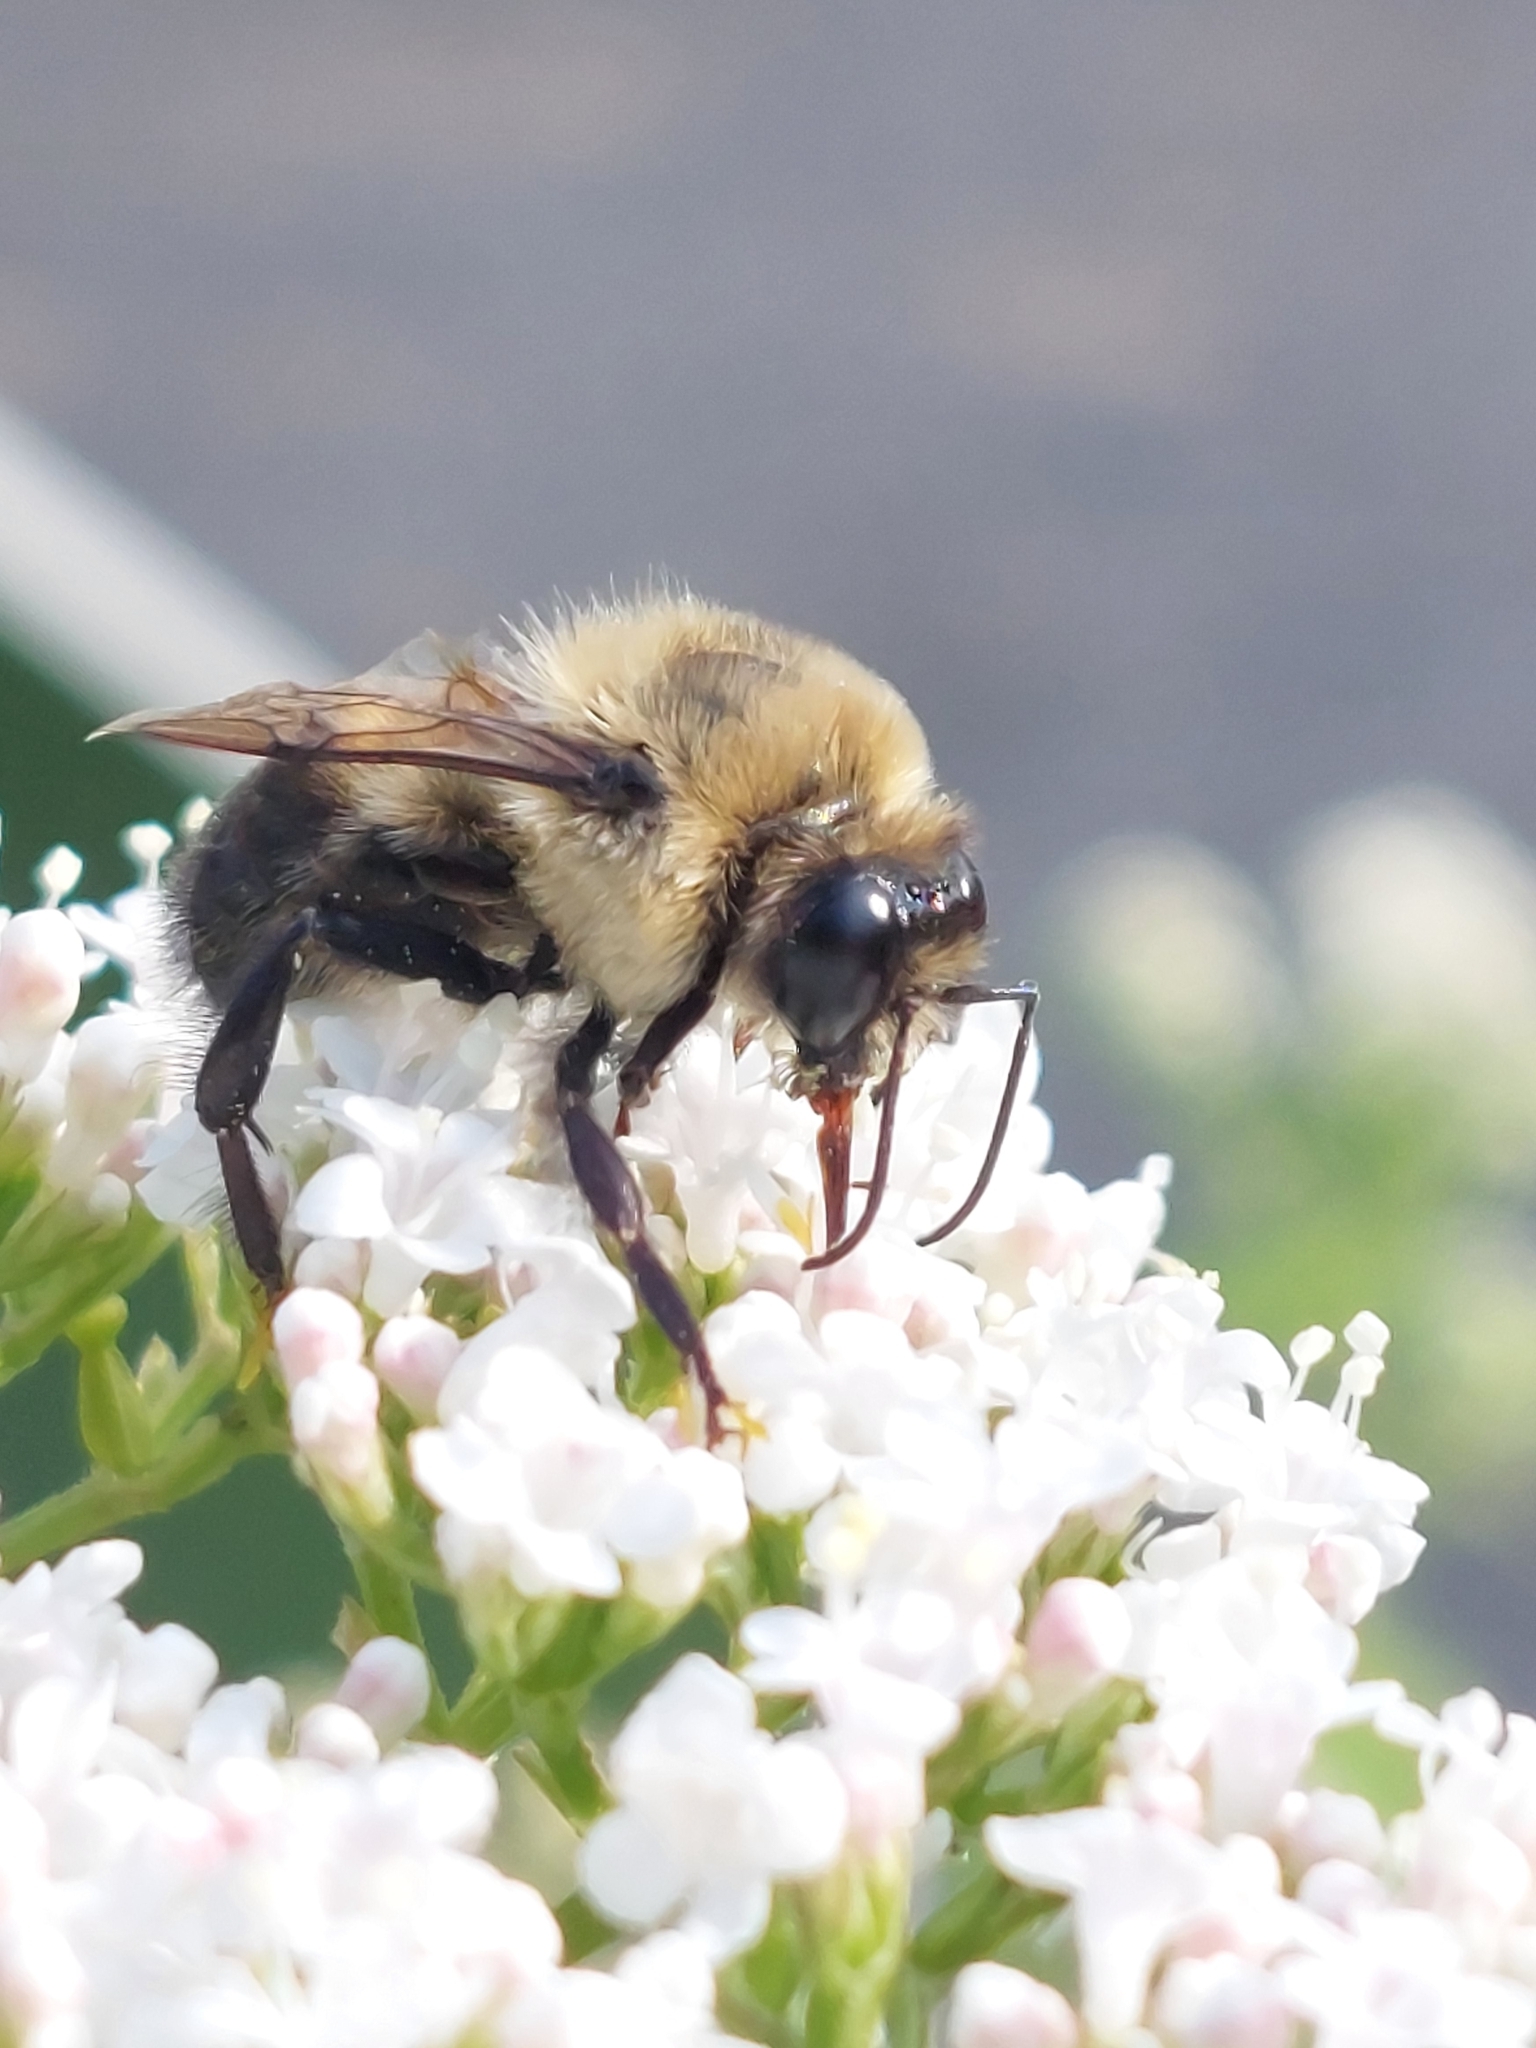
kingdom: Animalia
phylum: Arthropoda
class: Insecta
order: Hymenoptera
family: Apidae
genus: Bombus
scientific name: Bombus griseocollis
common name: Brown-belted bumble bee
